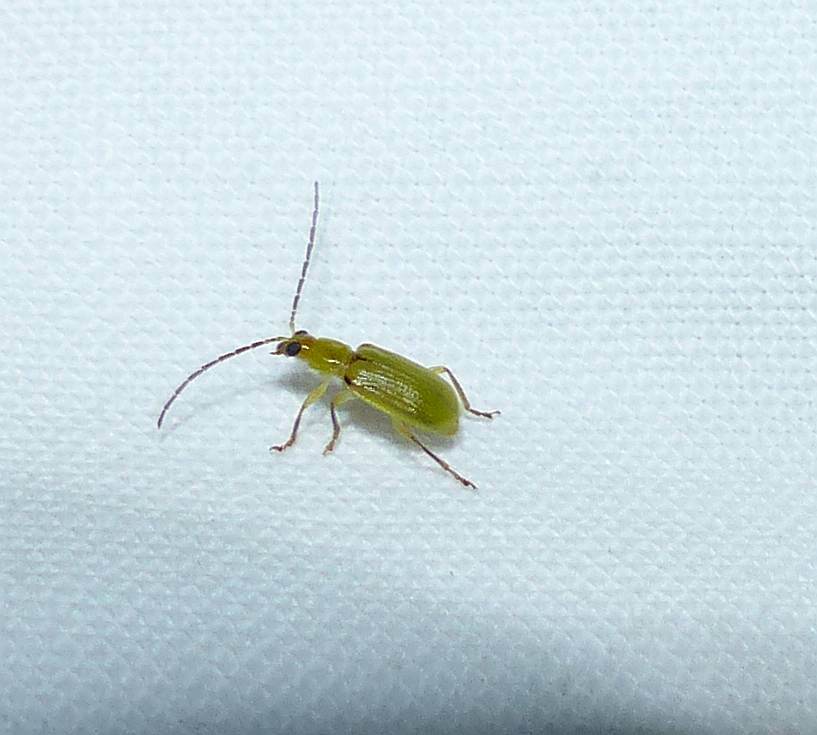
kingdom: Animalia
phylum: Arthropoda
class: Insecta
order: Coleoptera
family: Chrysomelidae
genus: Diabrotica
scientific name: Diabrotica barberi
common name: Northern corn rootworm
